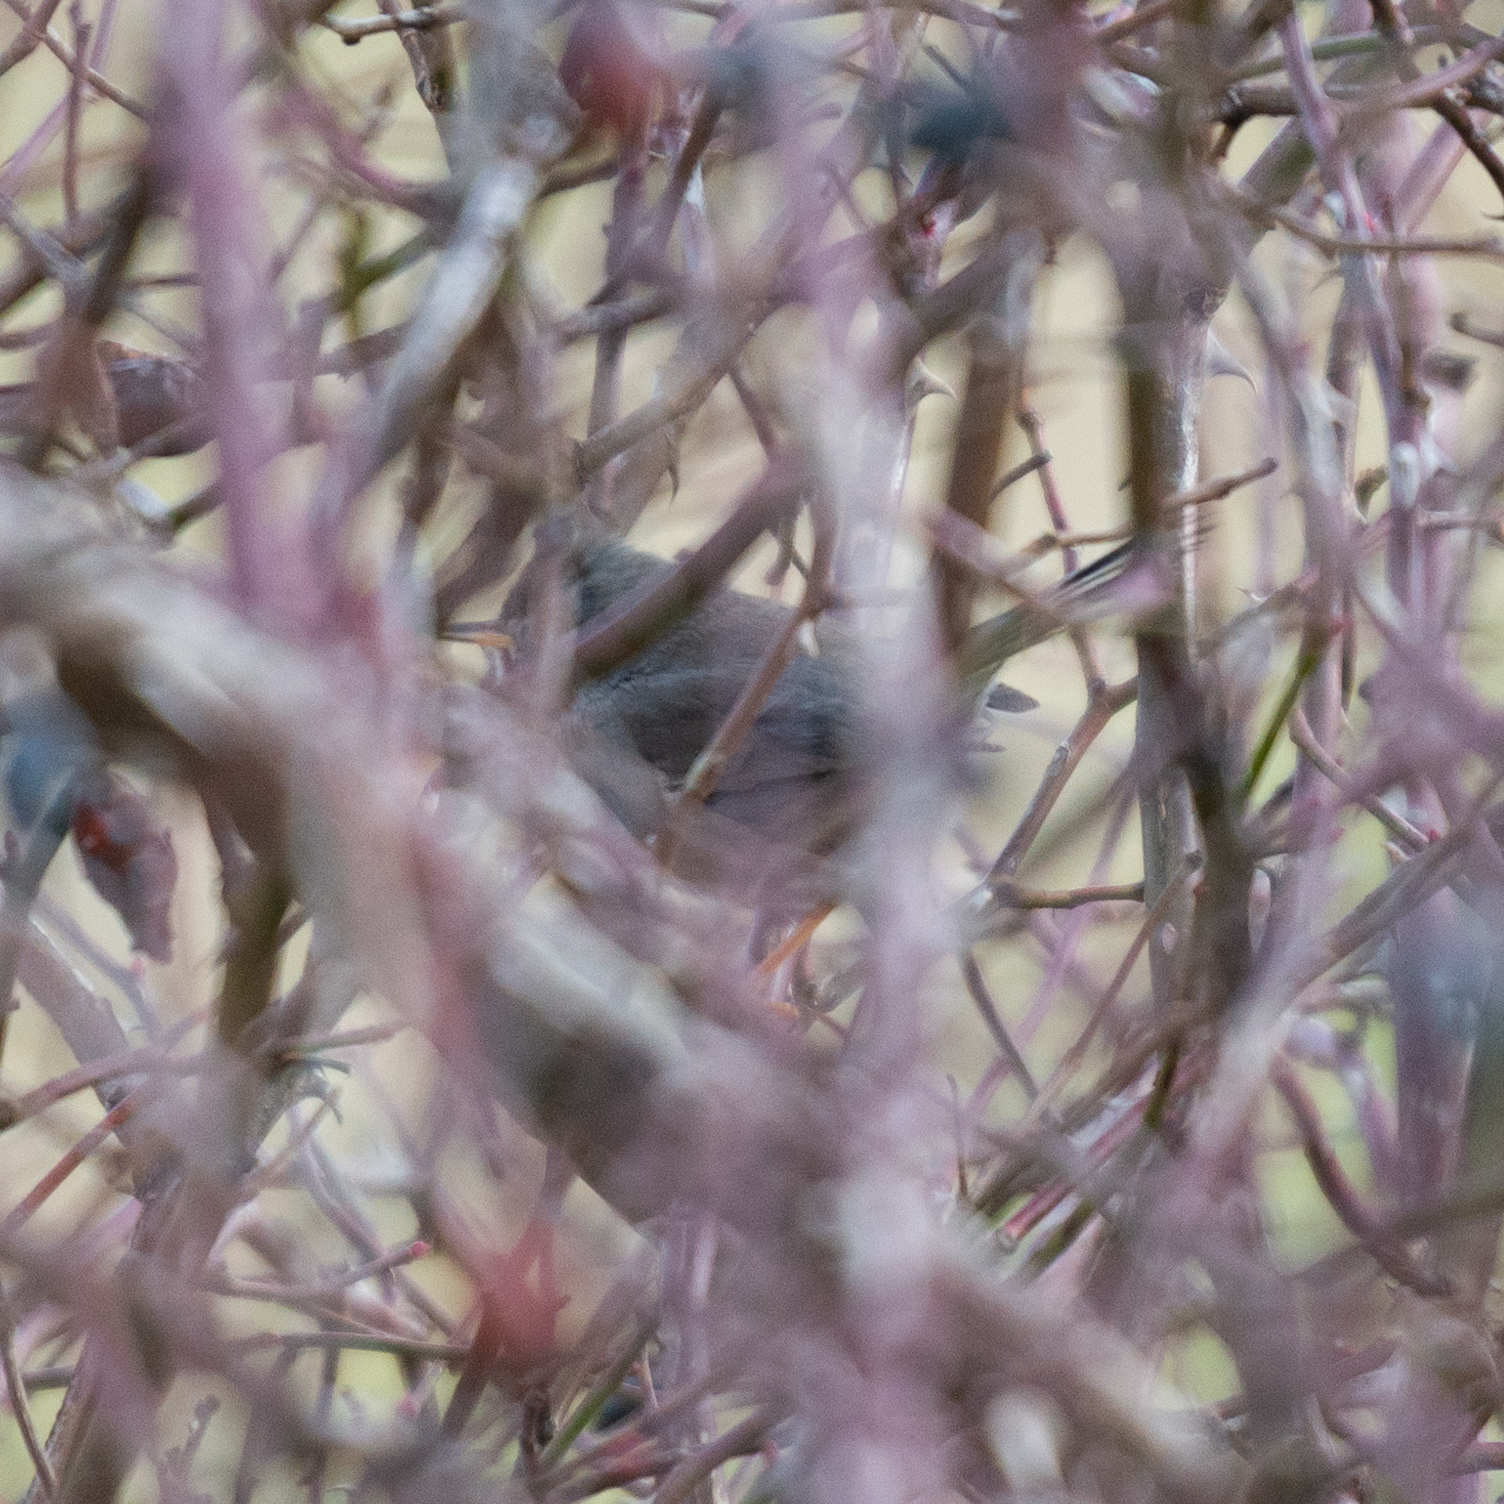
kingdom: Animalia
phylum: Chordata
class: Aves
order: Passeriformes
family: Sylviidae
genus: Sylvia
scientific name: Sylvia undata
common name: Dartford warbler
